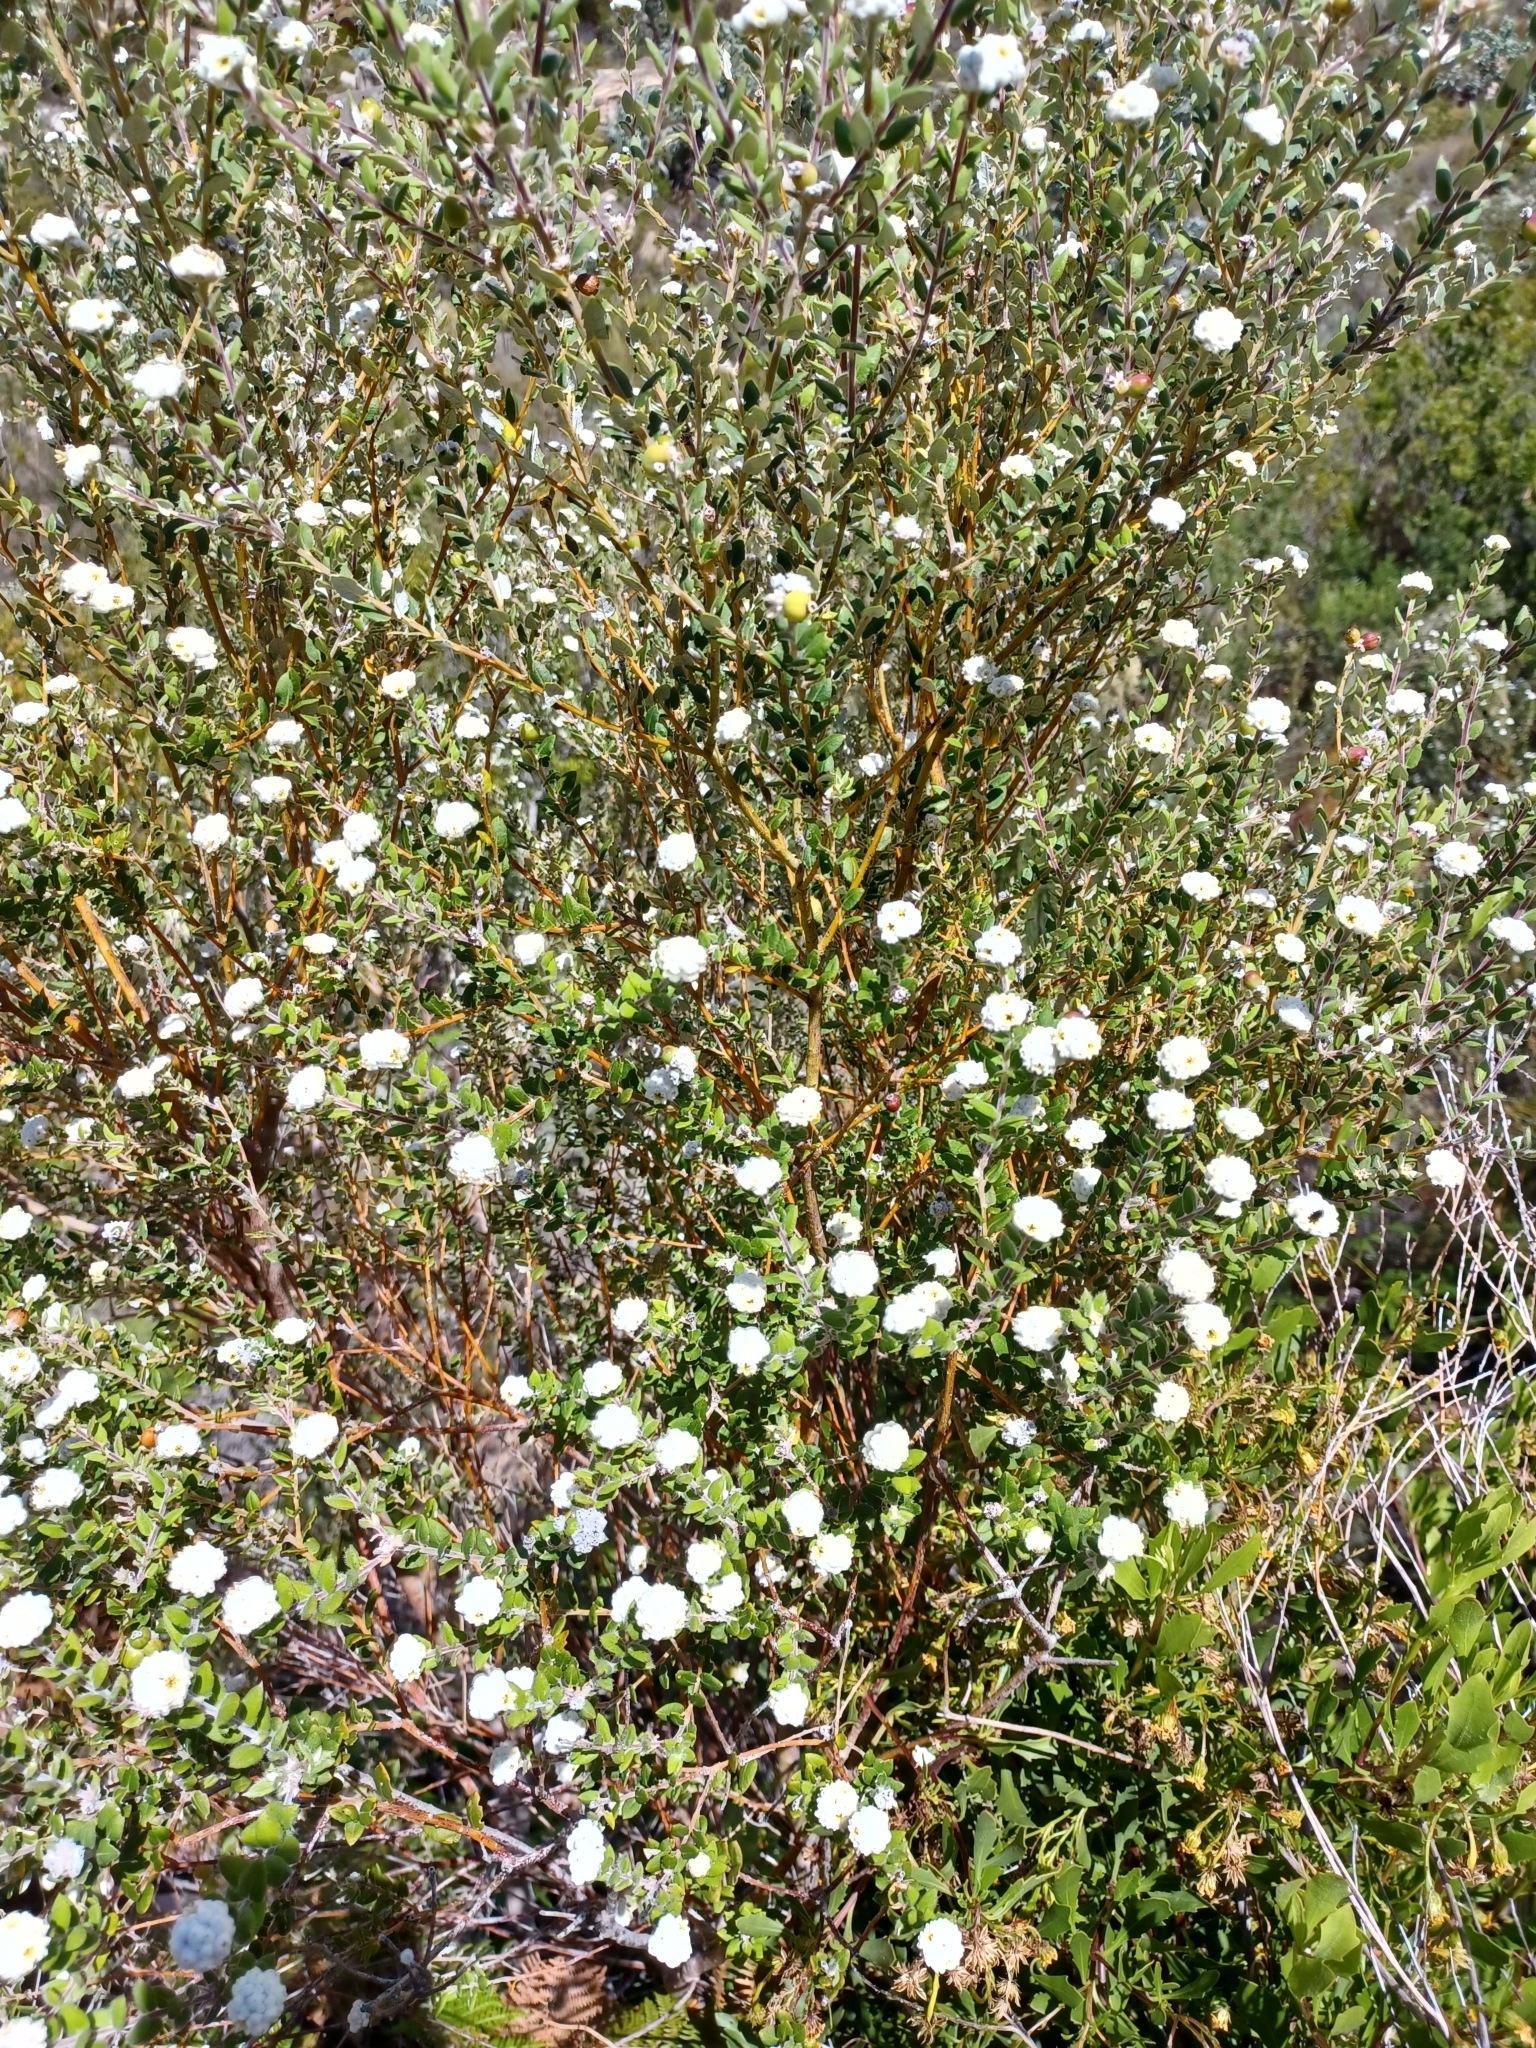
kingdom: Plantae
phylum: Tracheophyta
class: Magnoliopsida
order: Rosales
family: Rhamnaceae
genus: Phylica
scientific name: Phylica nervosa
